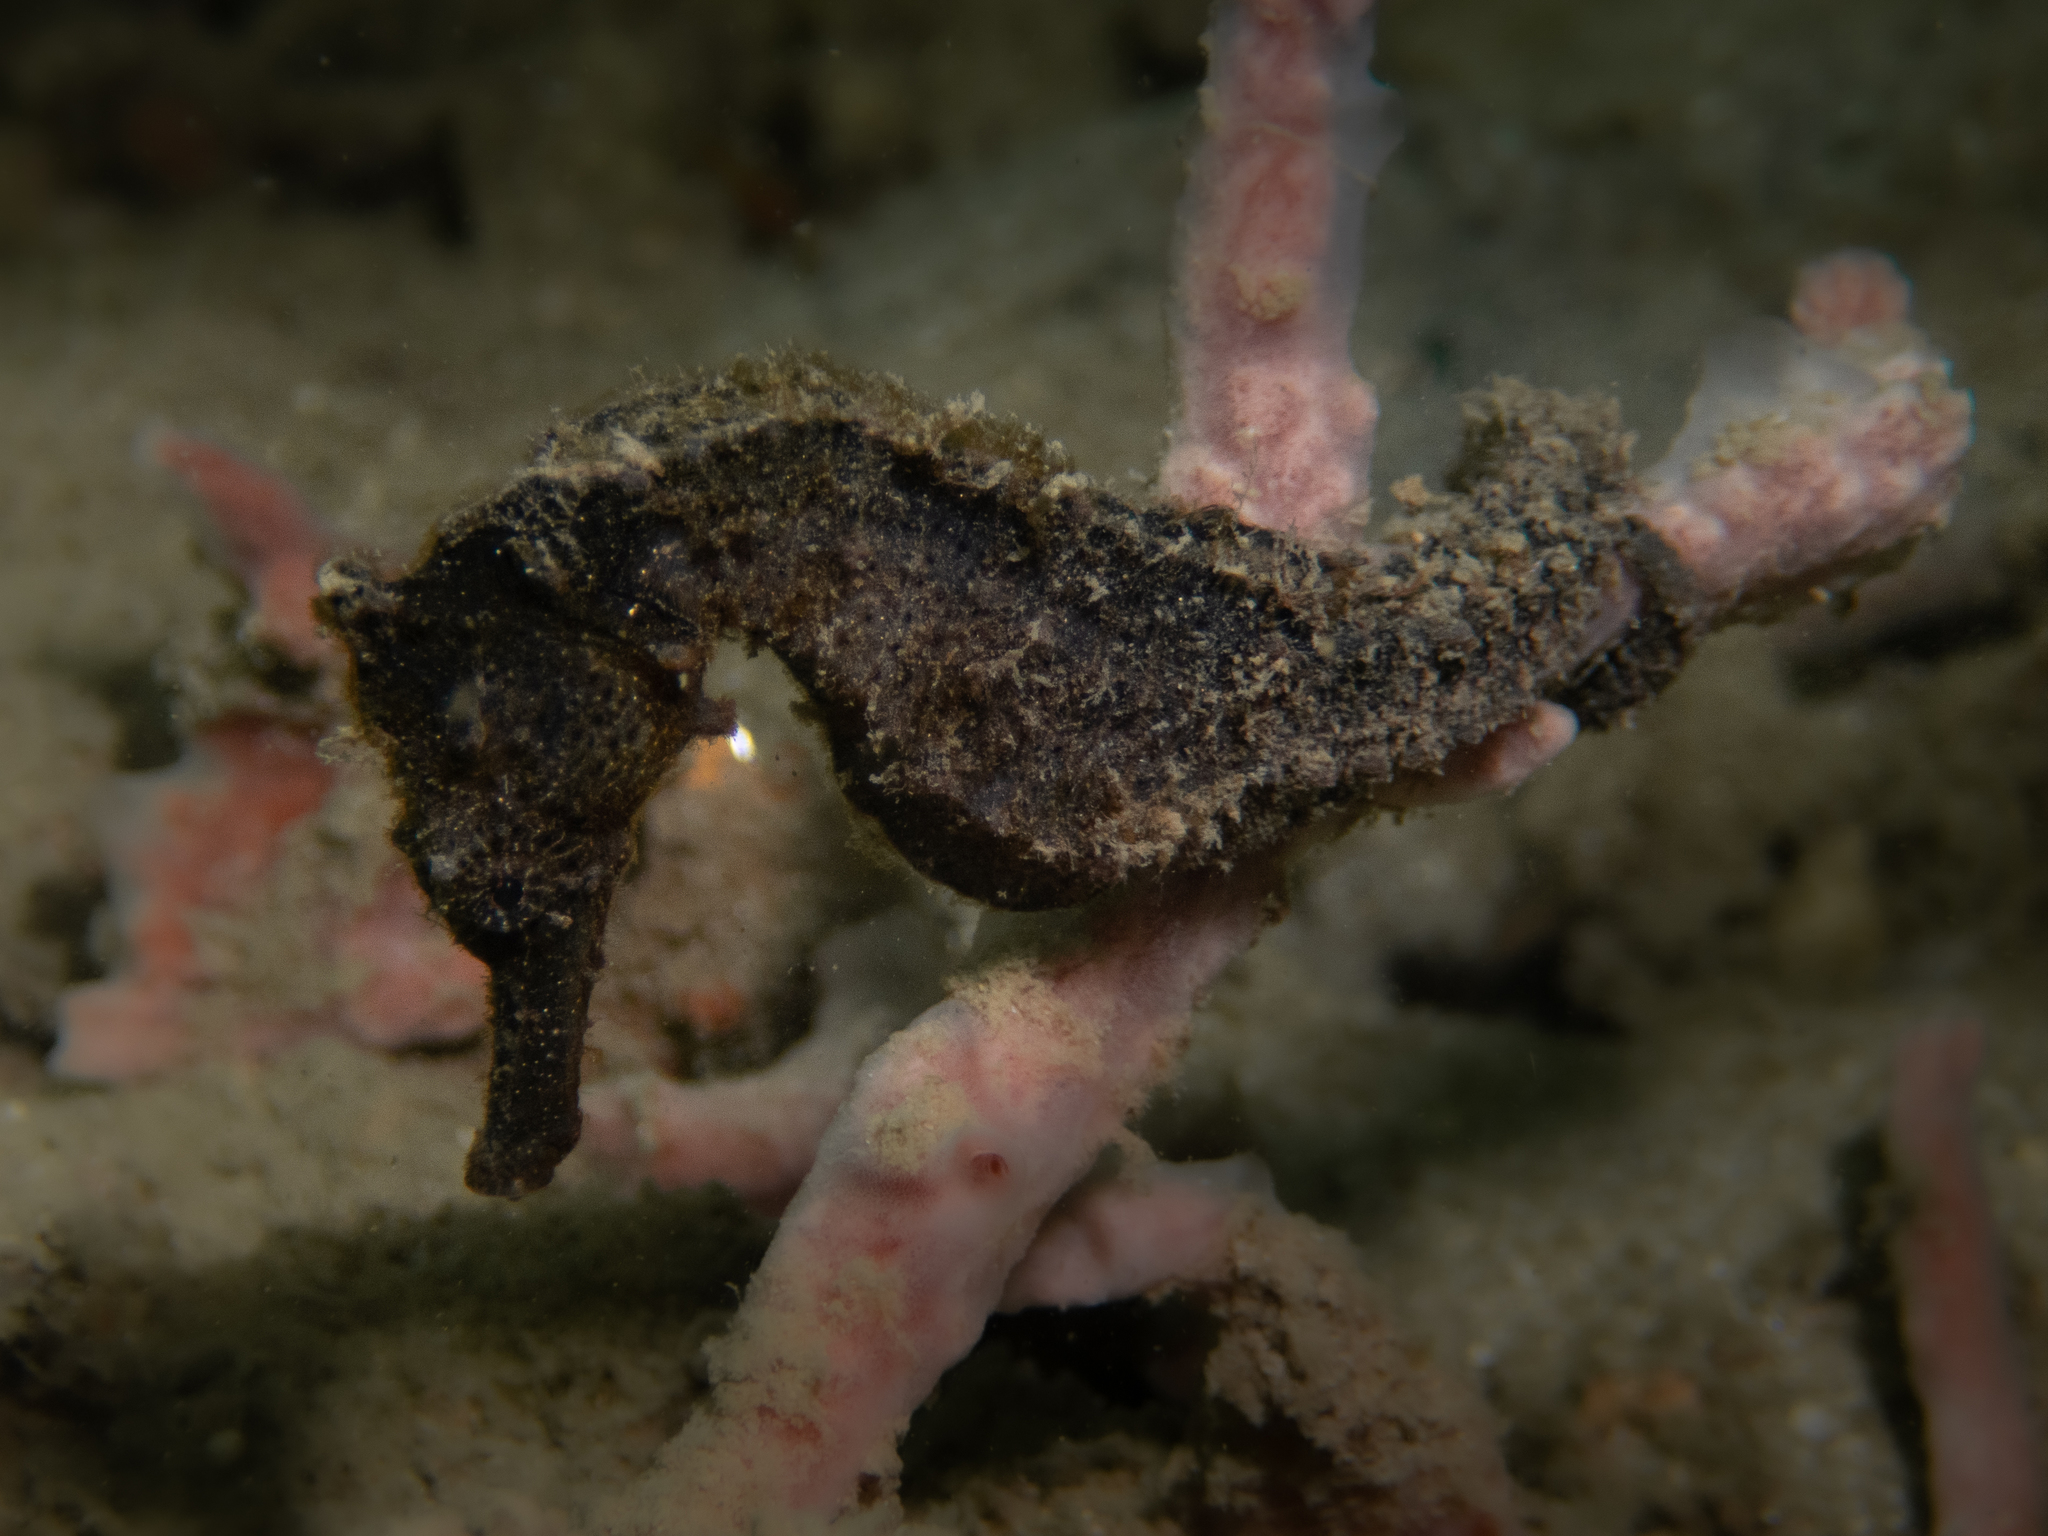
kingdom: Animalia
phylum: Chordata
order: Syngnathiformes
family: Syngnathidae
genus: Hippocampus
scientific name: Hippocampus kuda
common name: Spotted seahorse
